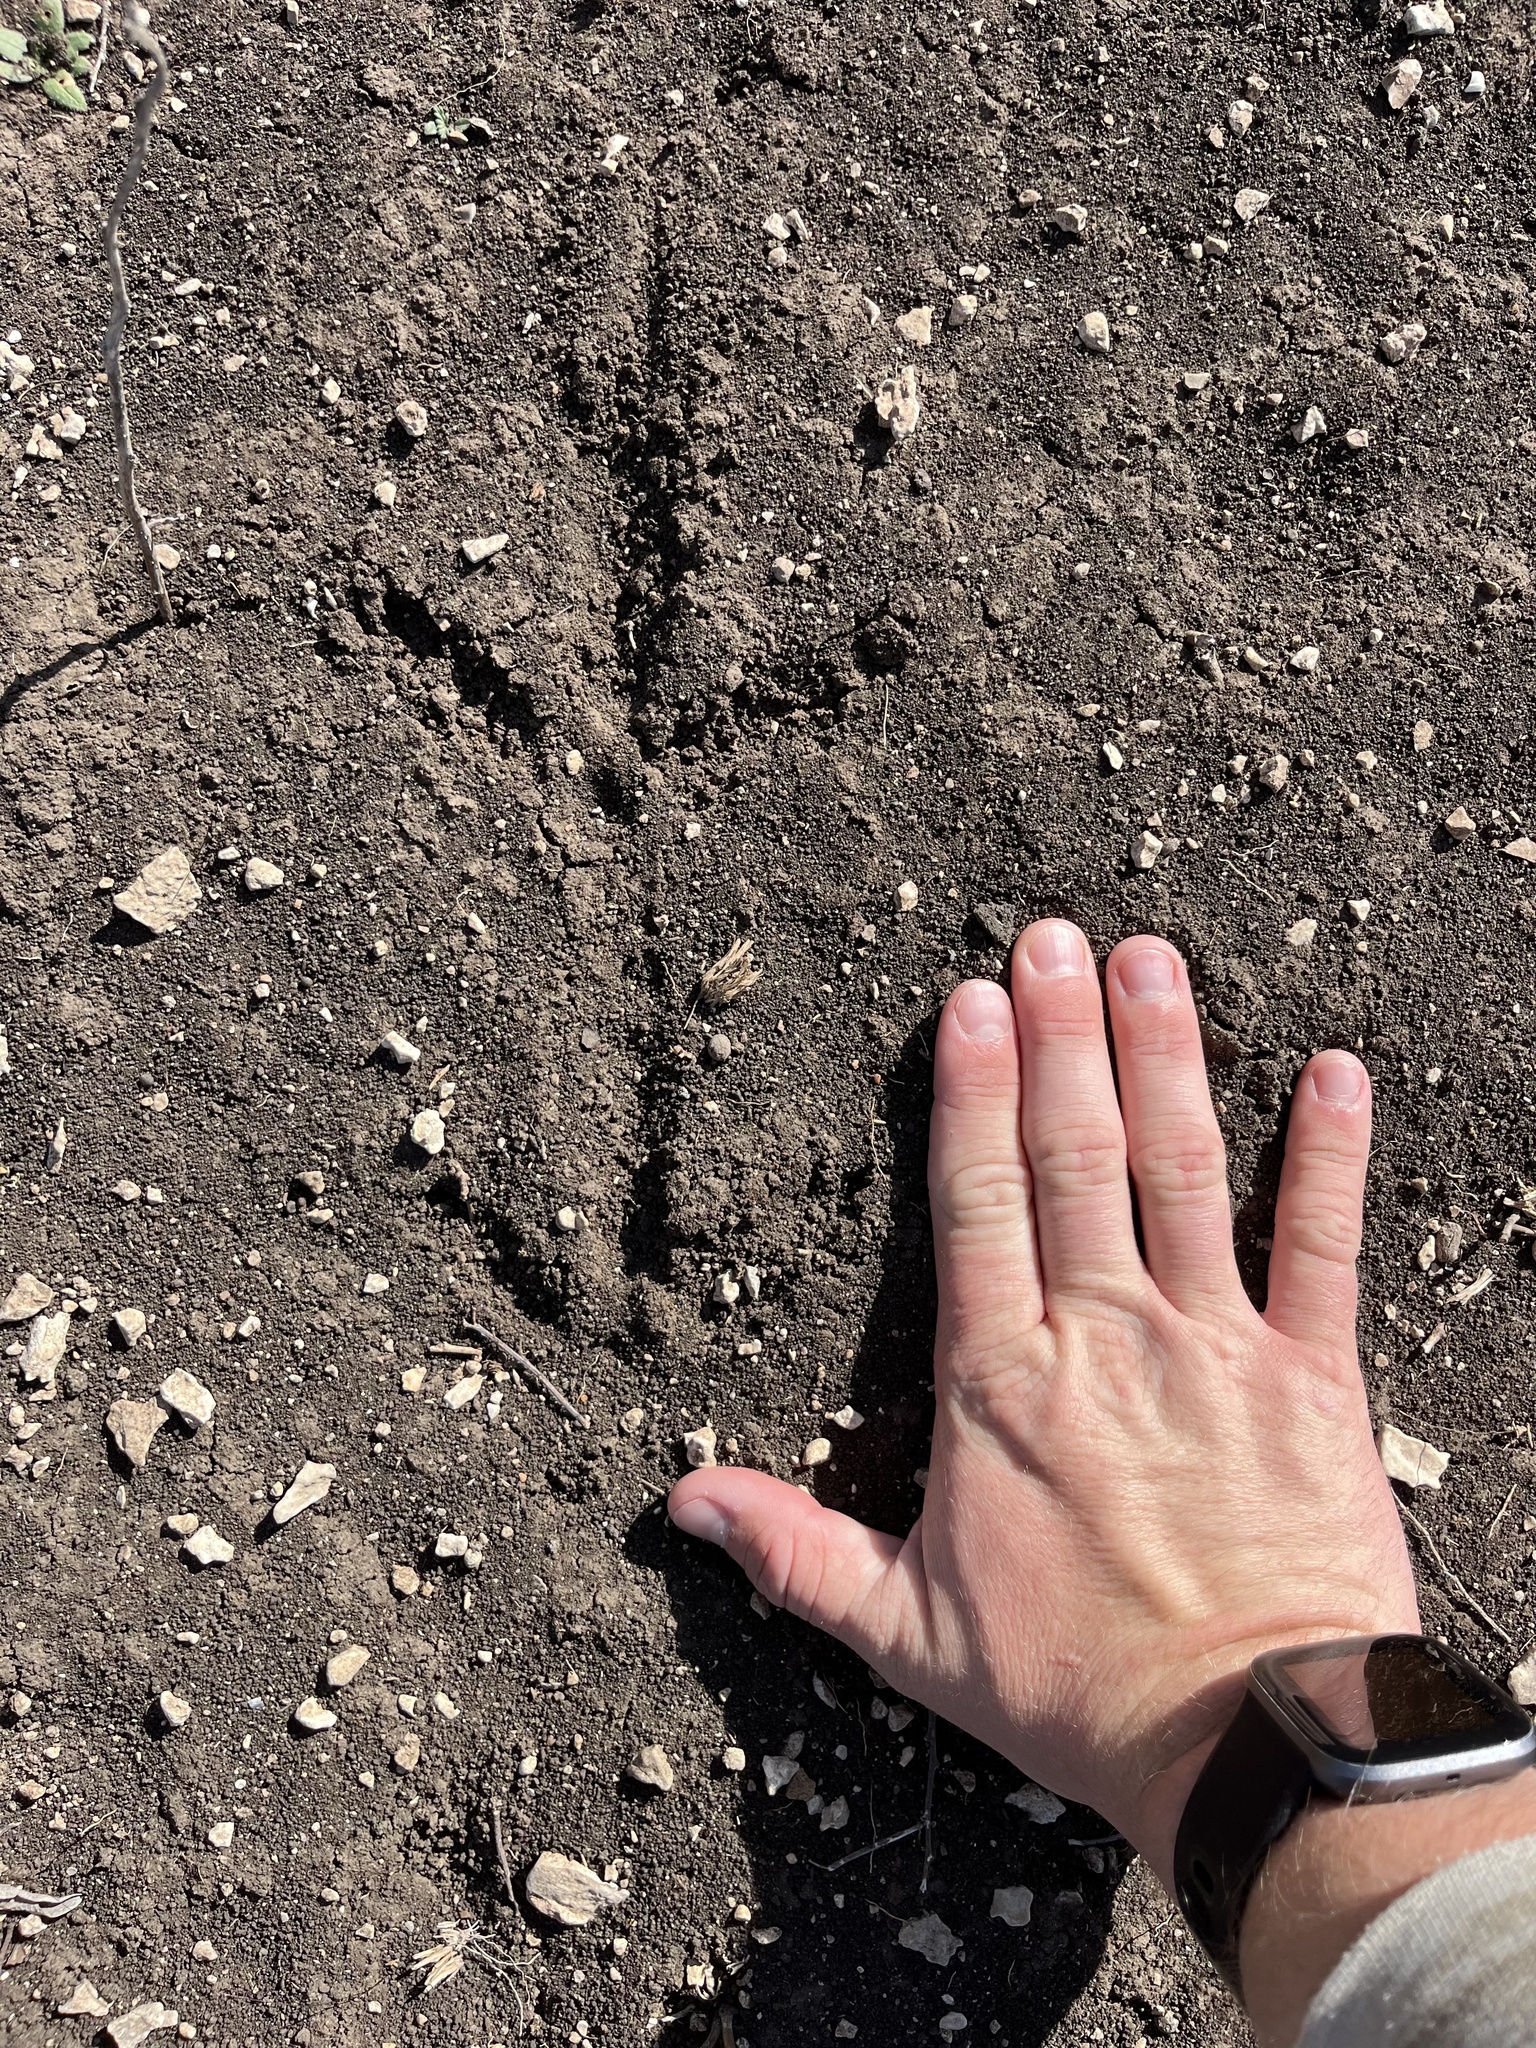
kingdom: Animalia
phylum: Chordata
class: Aves
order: Galliformes
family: Phasianidae
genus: Meleagris
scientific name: Meleagris gallopavo
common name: Wild turkey
